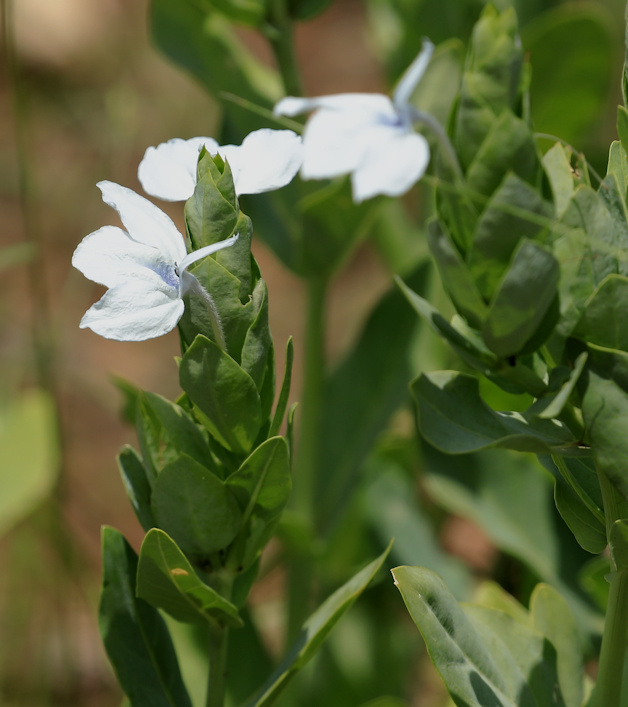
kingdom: Plantae
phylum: Tracheophyta
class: Magnoliopsida
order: Lamiales
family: Acanthaceae
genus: Ecbolium
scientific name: Ecbolium glabratum
